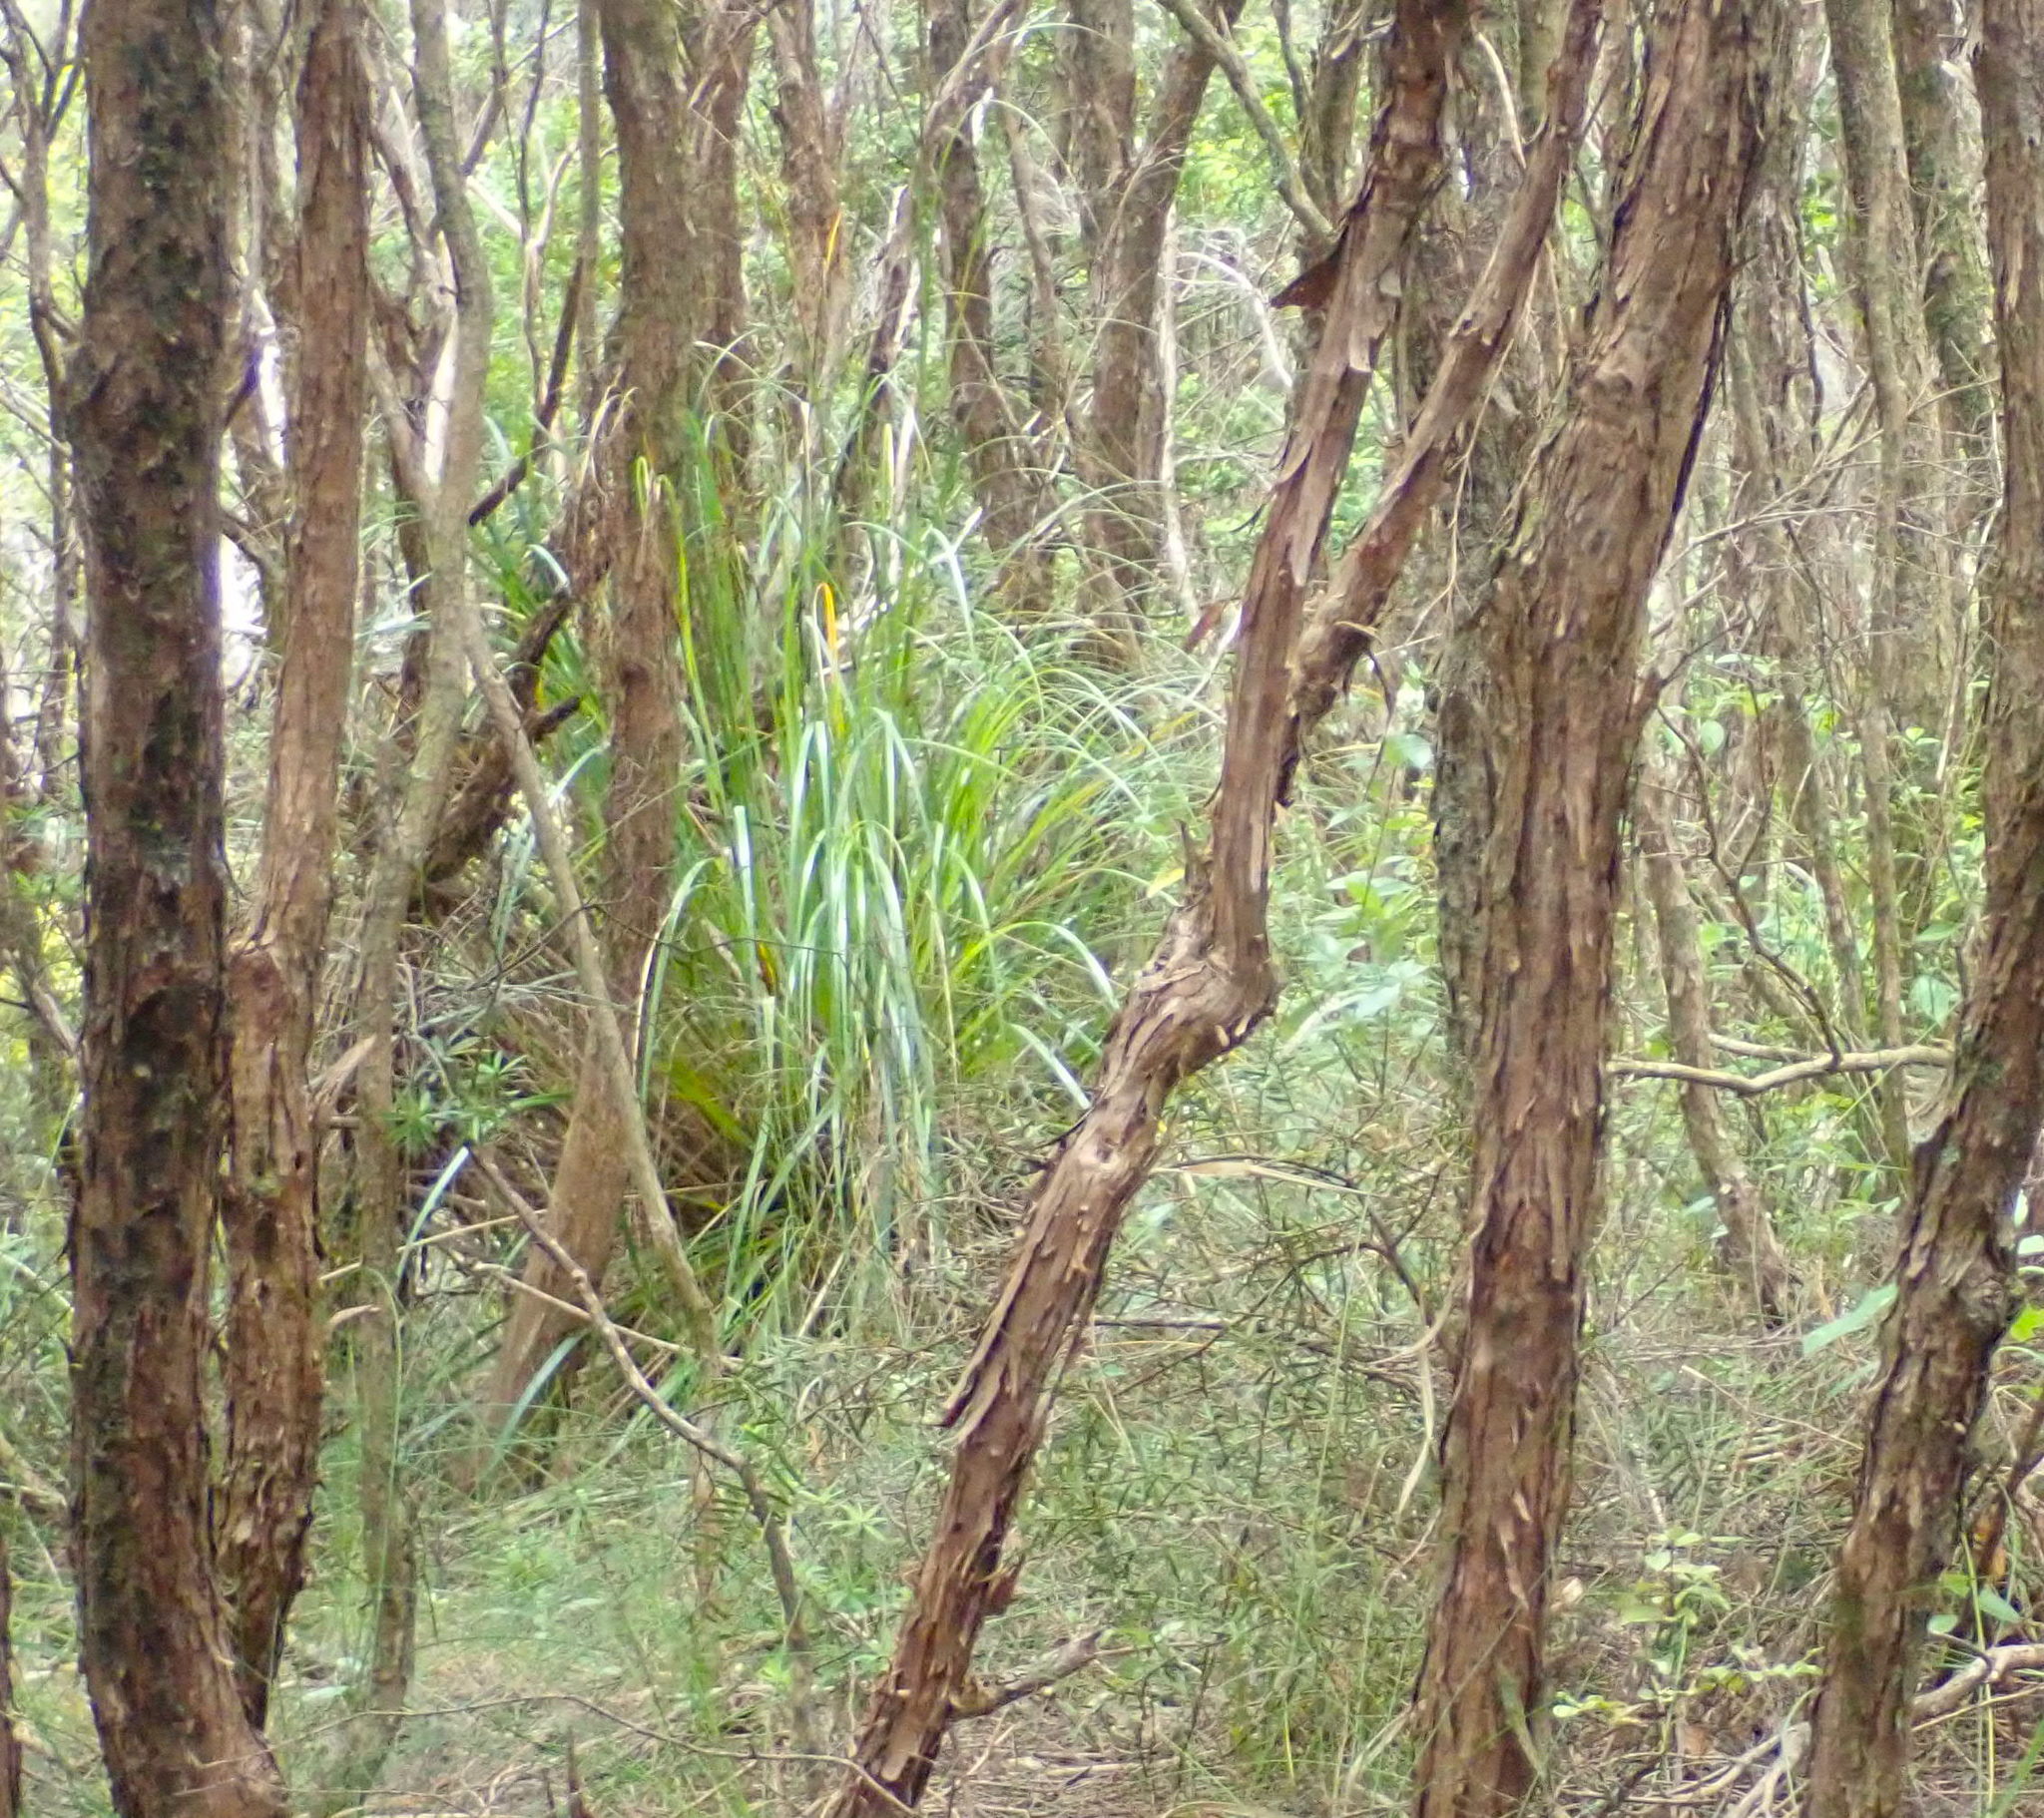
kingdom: Plantae
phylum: Tracheophyta
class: Liliopsida
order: Poales
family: Cyperaceae
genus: Gahnia
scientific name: Gahnia xanthocarpa
